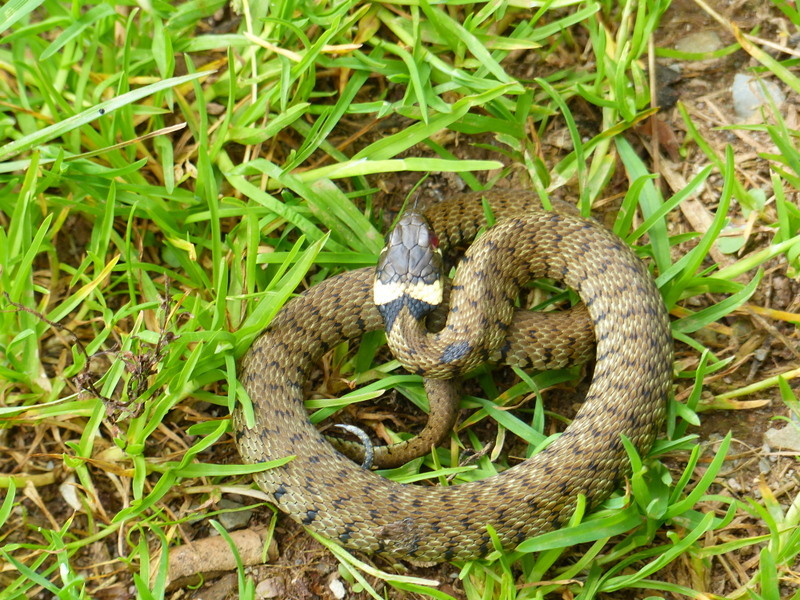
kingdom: Animalia
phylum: Chordata
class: Squamata
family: Colubridae
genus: Natrix
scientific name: Natrix helvetica
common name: Banded grass snake
